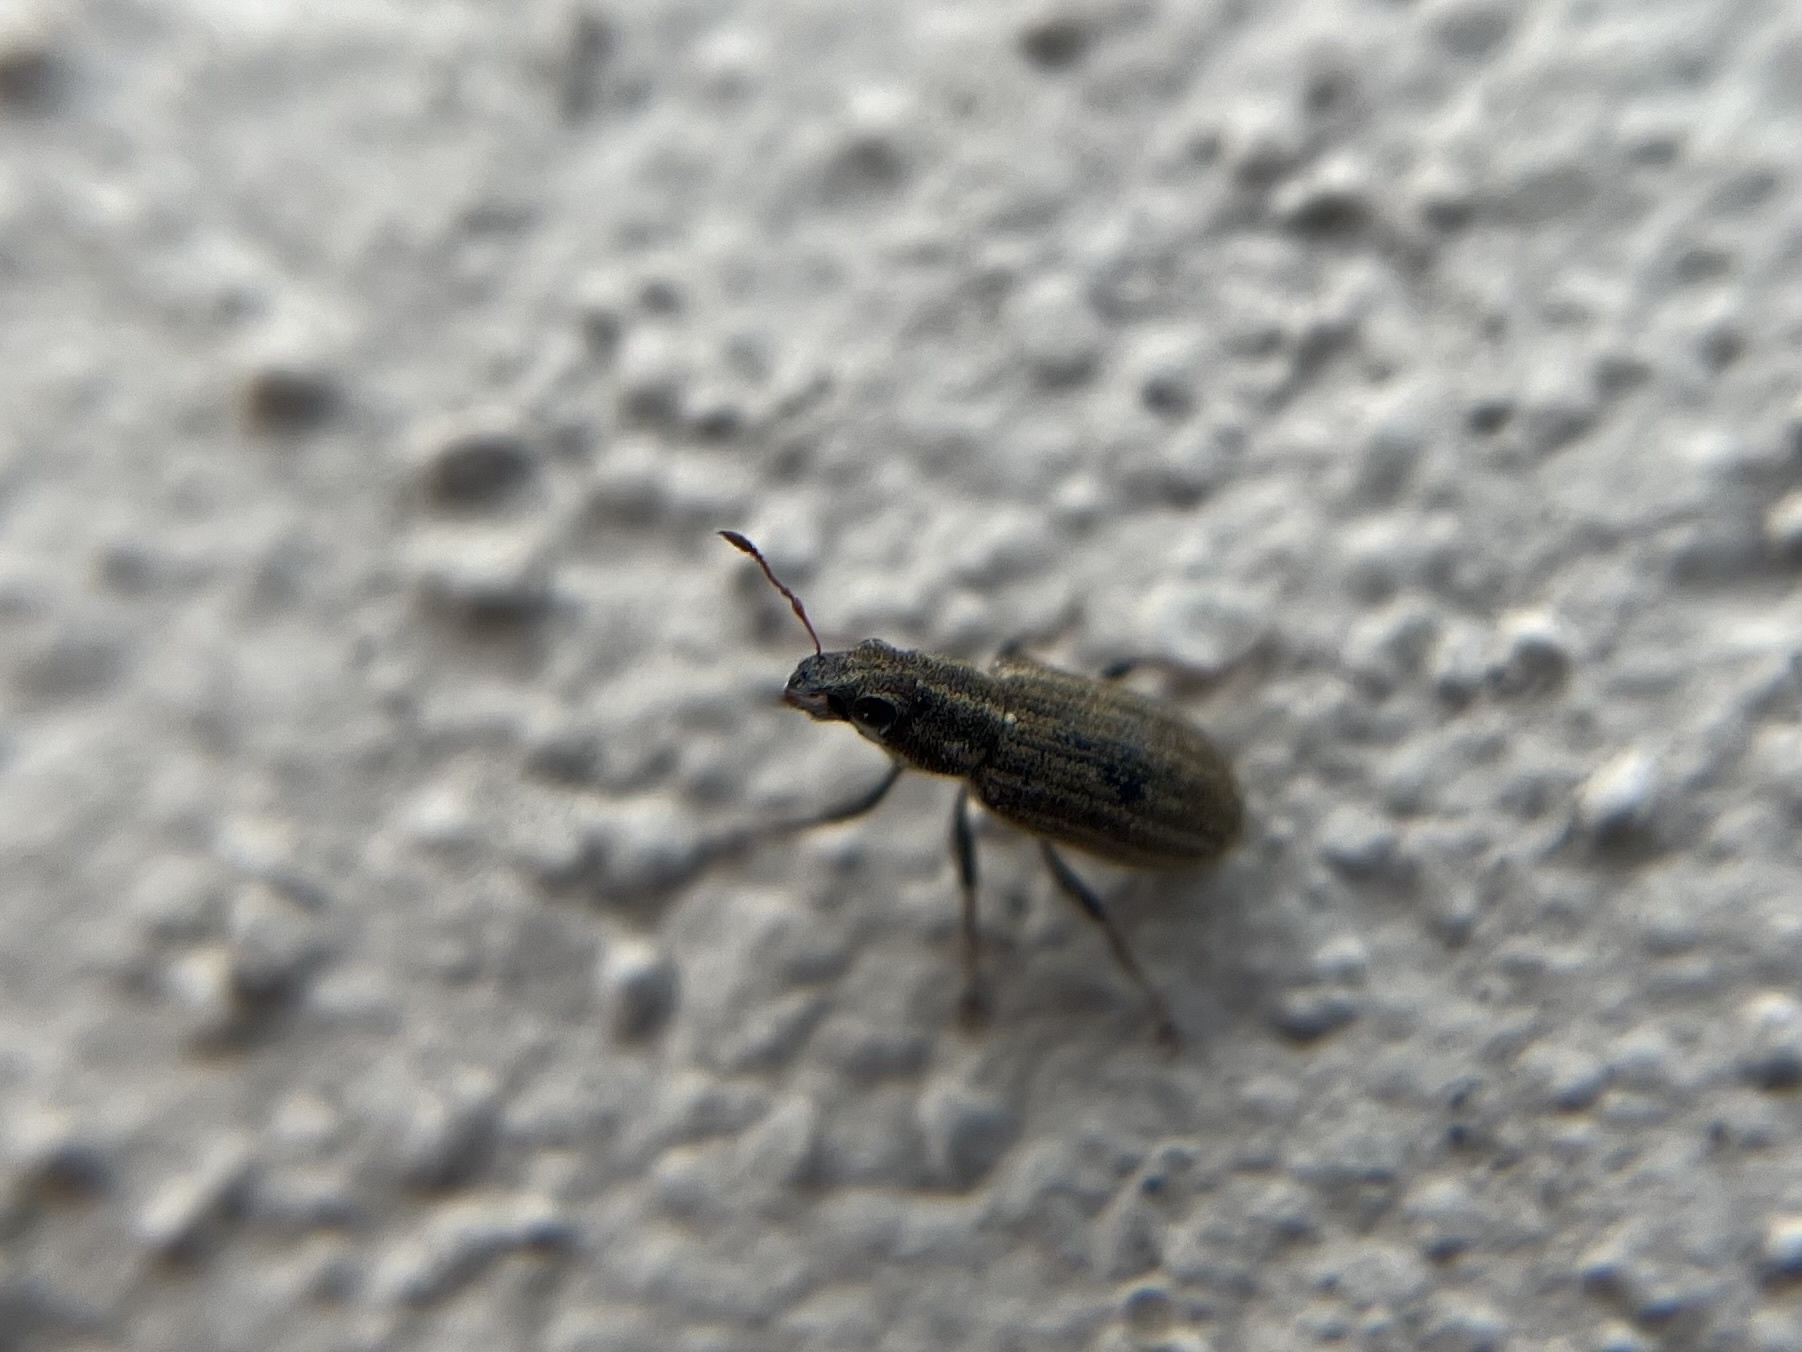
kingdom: Animalia
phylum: Arthropoda
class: Insecta
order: Coleoptera
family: Curculionidae
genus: Sitona
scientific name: Sitona lineatus
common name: Weevil
